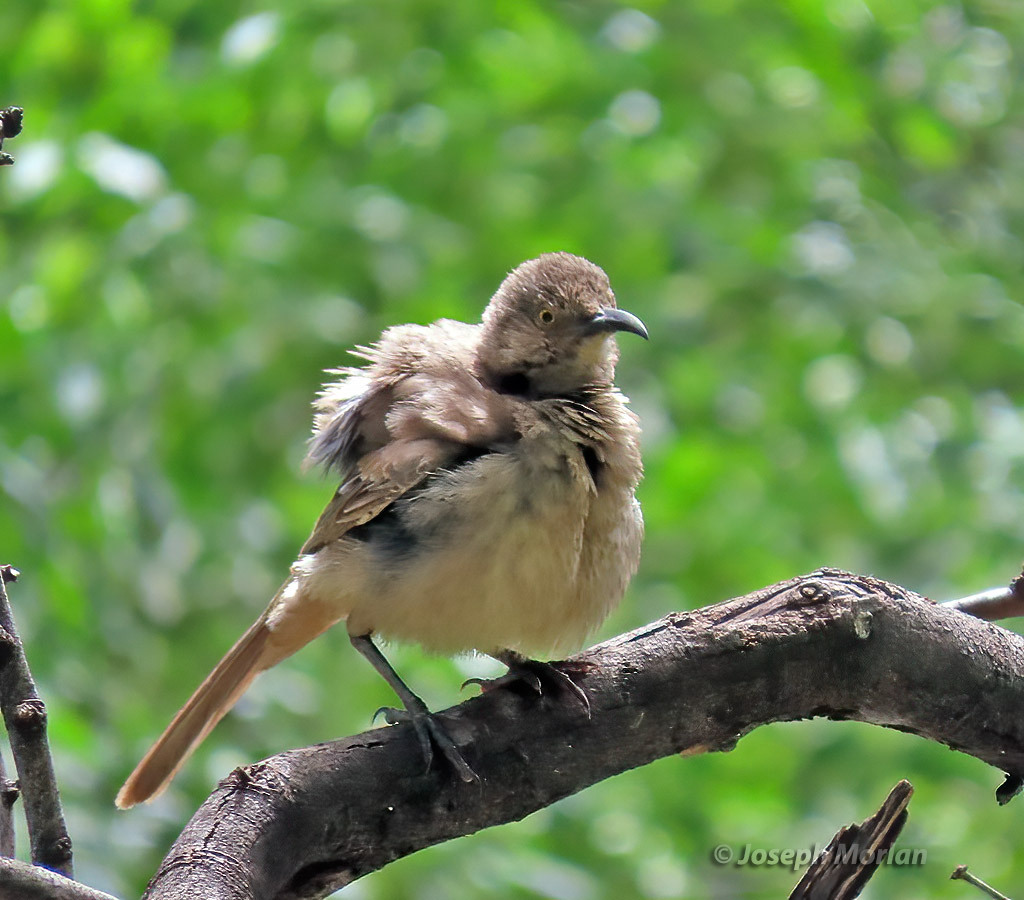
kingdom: Animalia
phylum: Chordata
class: Aves
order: Passeriformes
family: Mimidae
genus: Toxostoma
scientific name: Toxostoma curvirostre
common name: Curve-billed thrasher
